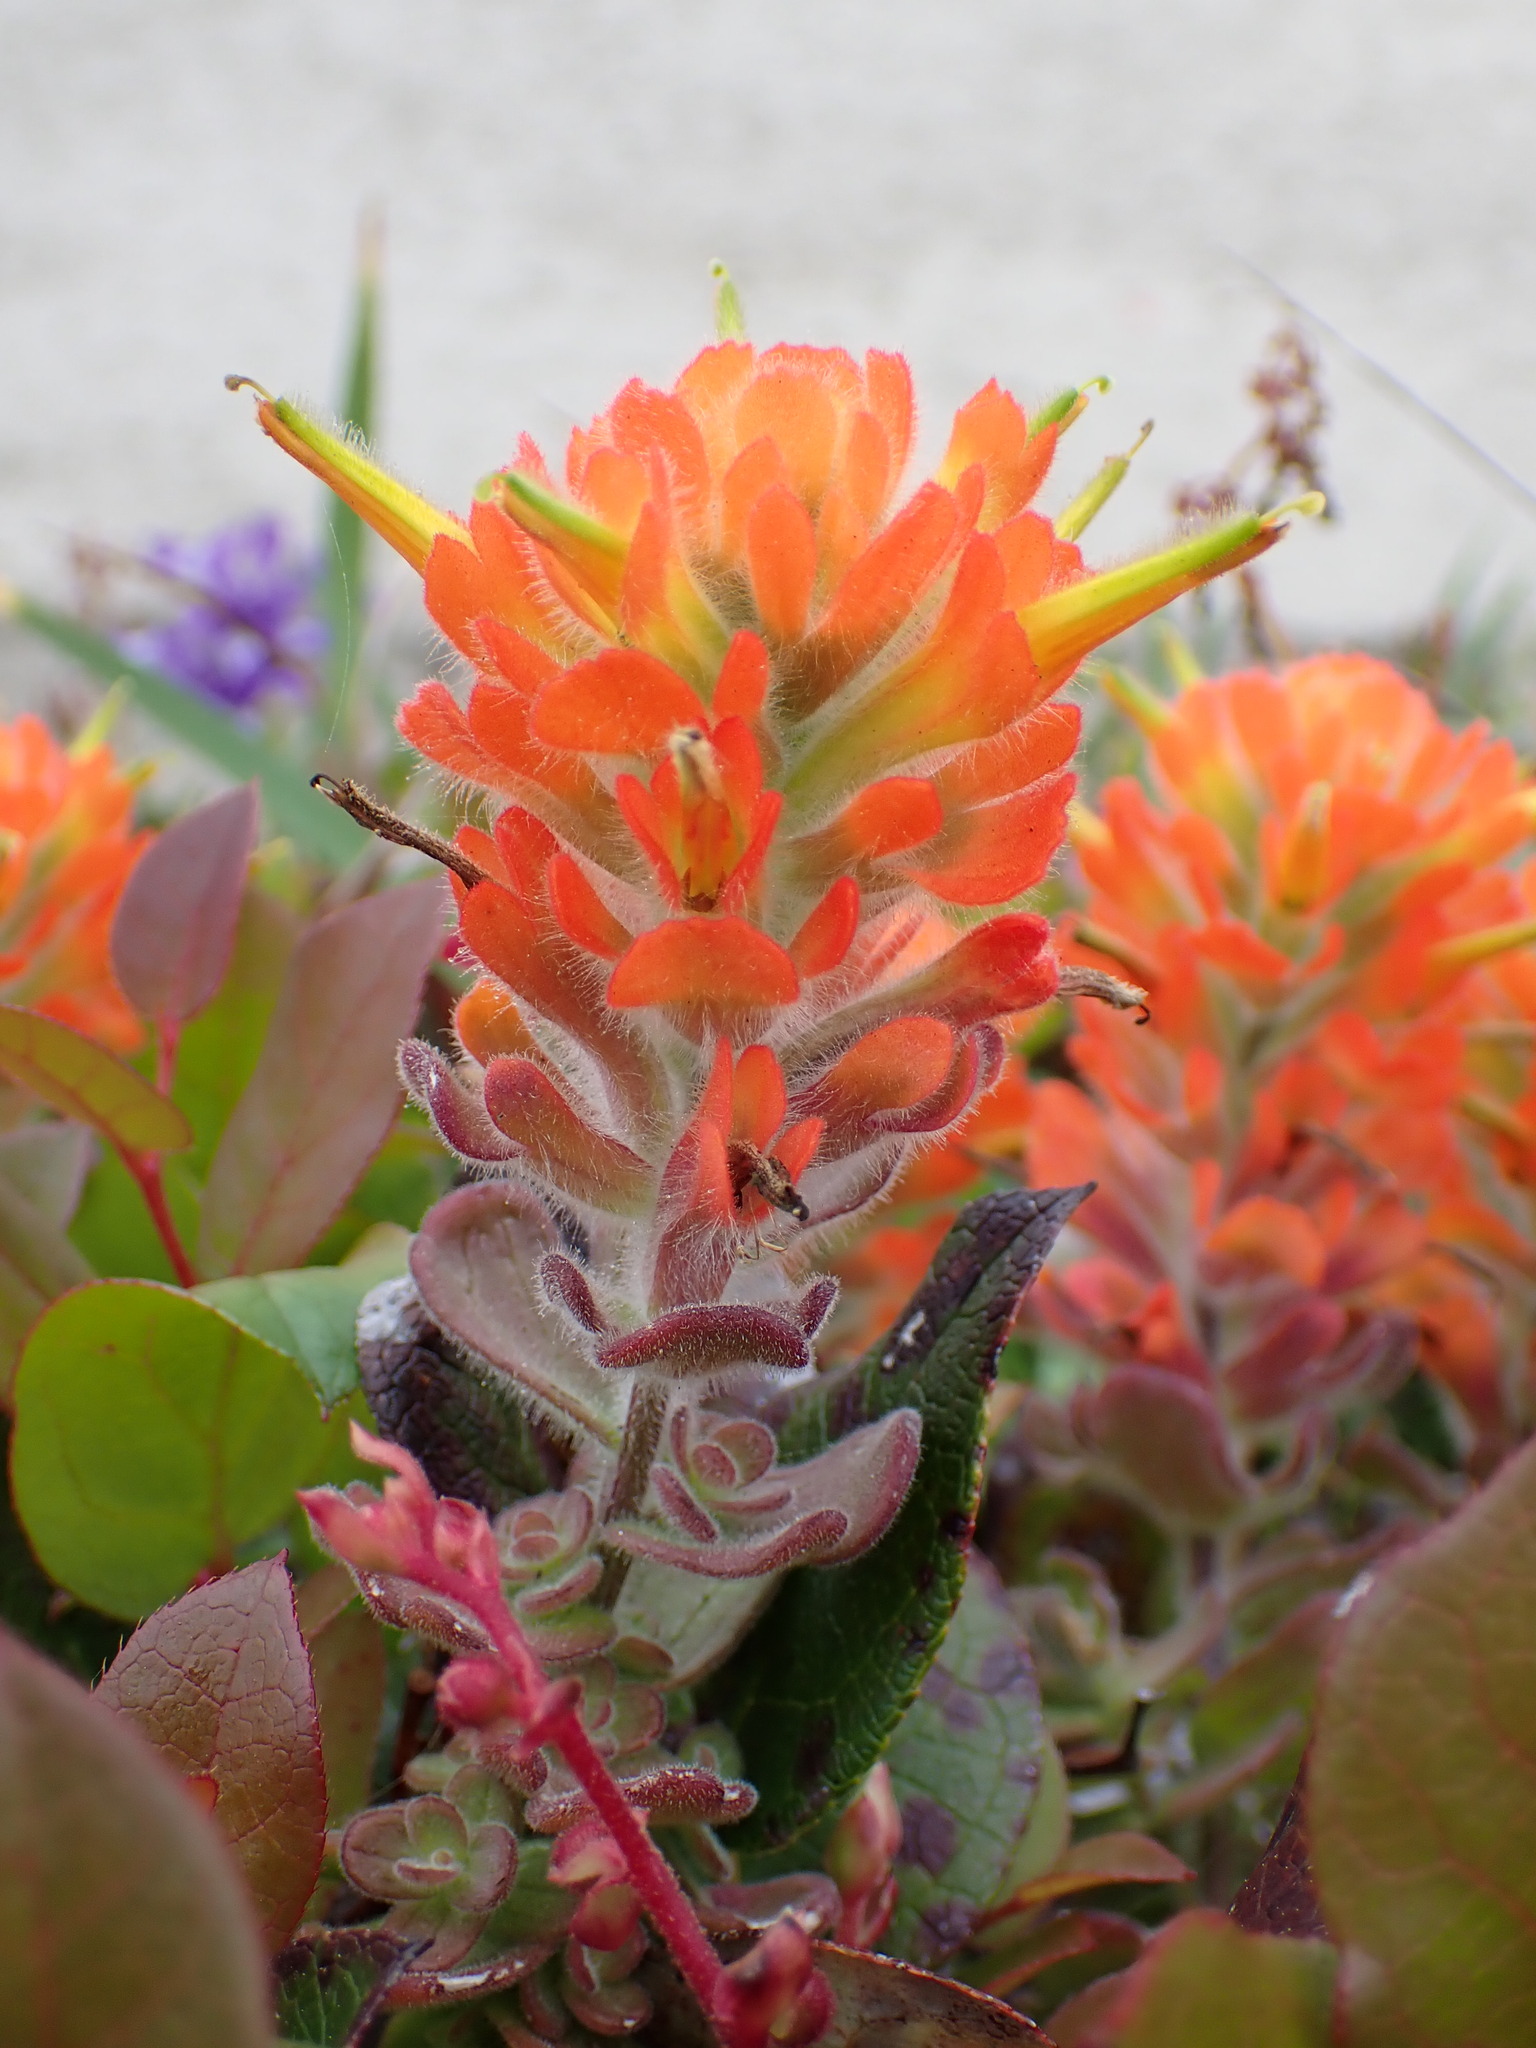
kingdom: Plantae
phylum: Tracheophyta
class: Magnoliopsida
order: Lamiales
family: Orobanchaceae
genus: Castilleja
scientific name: Castilleja mendocinensis
